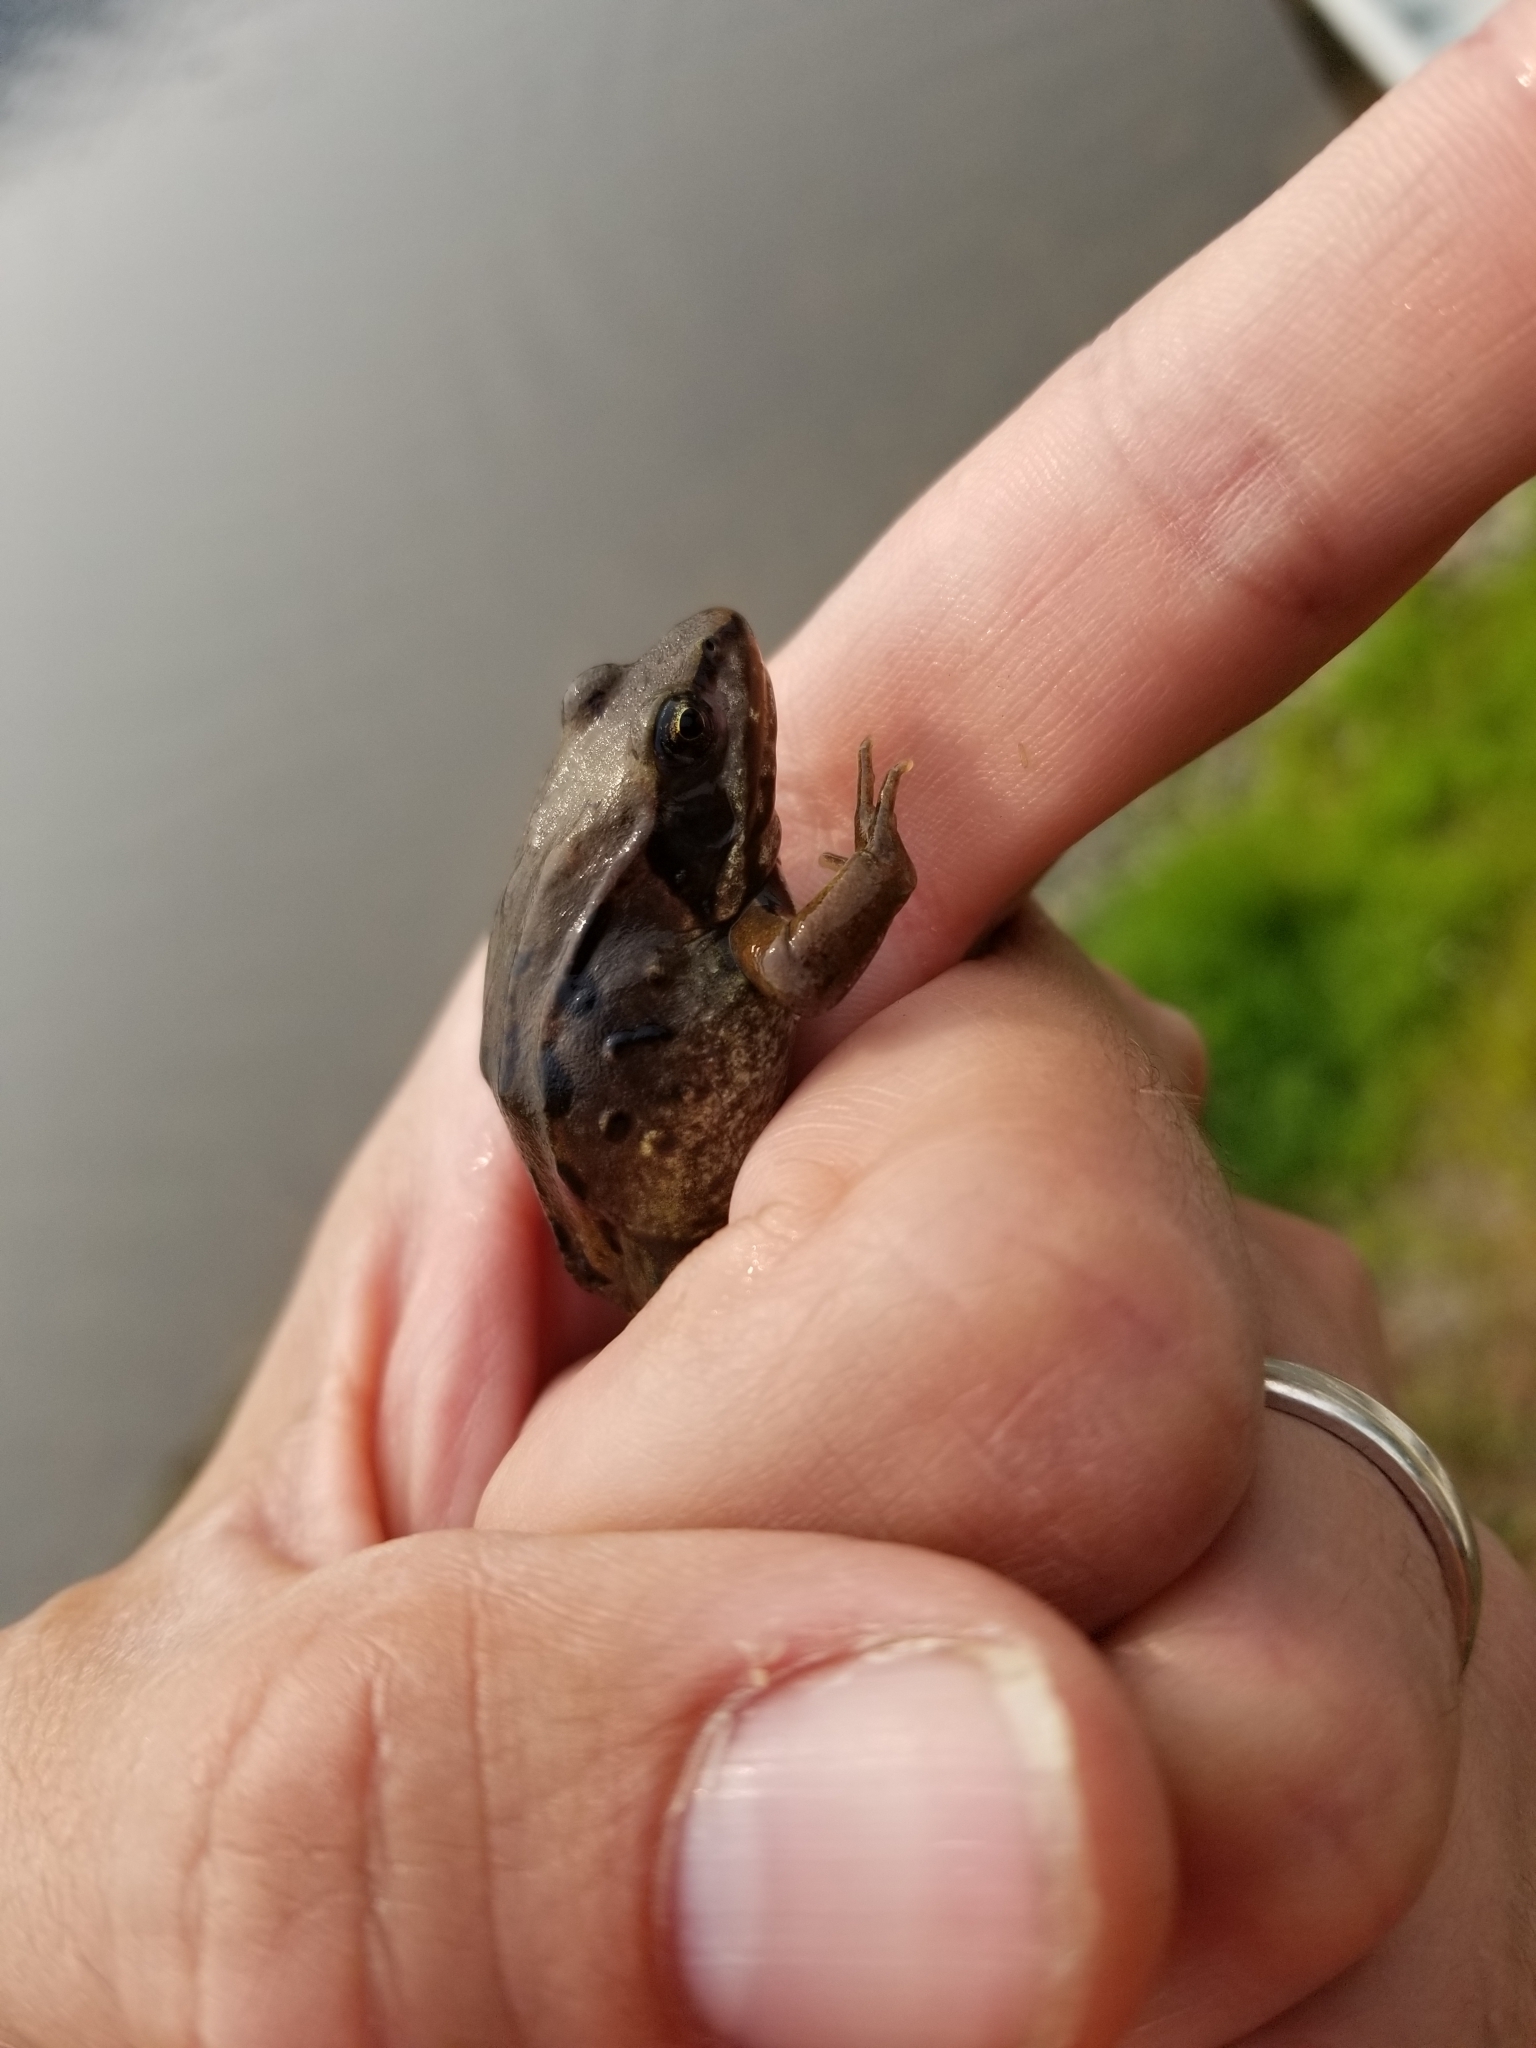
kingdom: Animalia
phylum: Chordata
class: Amphibia
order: Anura
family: Ranidae
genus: Lithobates
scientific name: Lithobates sylvaticus
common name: Wood frog
